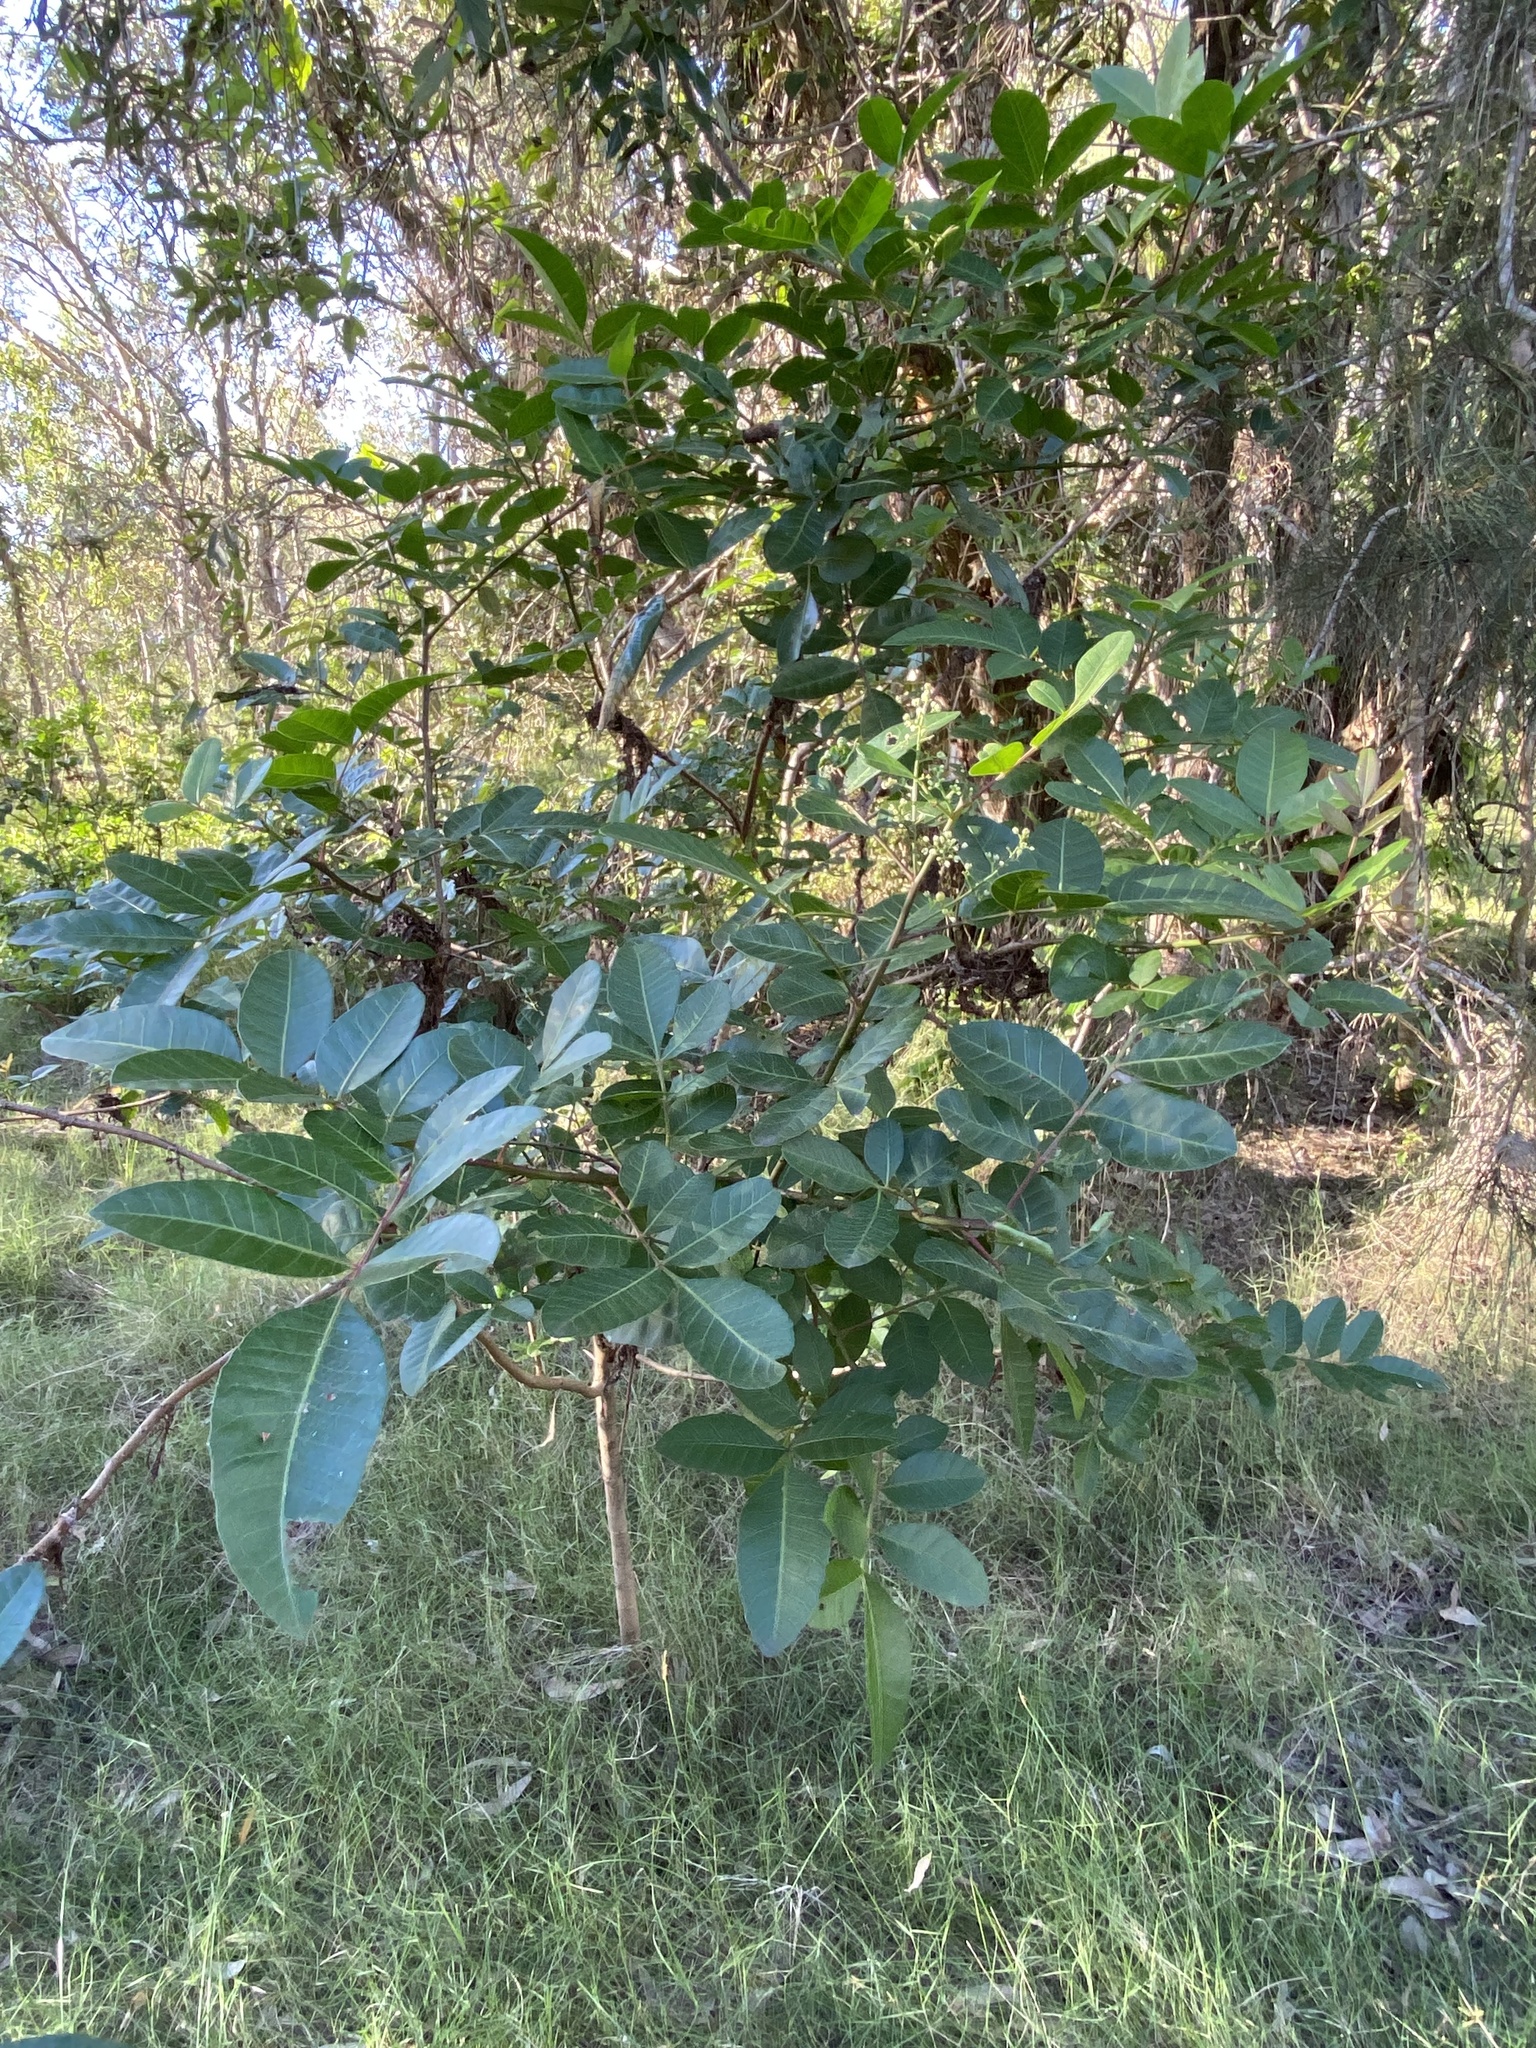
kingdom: Plantae
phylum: Tracheophyta
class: Magnoliopsida
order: Sapindales
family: Anacardiaceae
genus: Schinus
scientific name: Schinus terebinthifolia
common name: Brazilian peppertree
